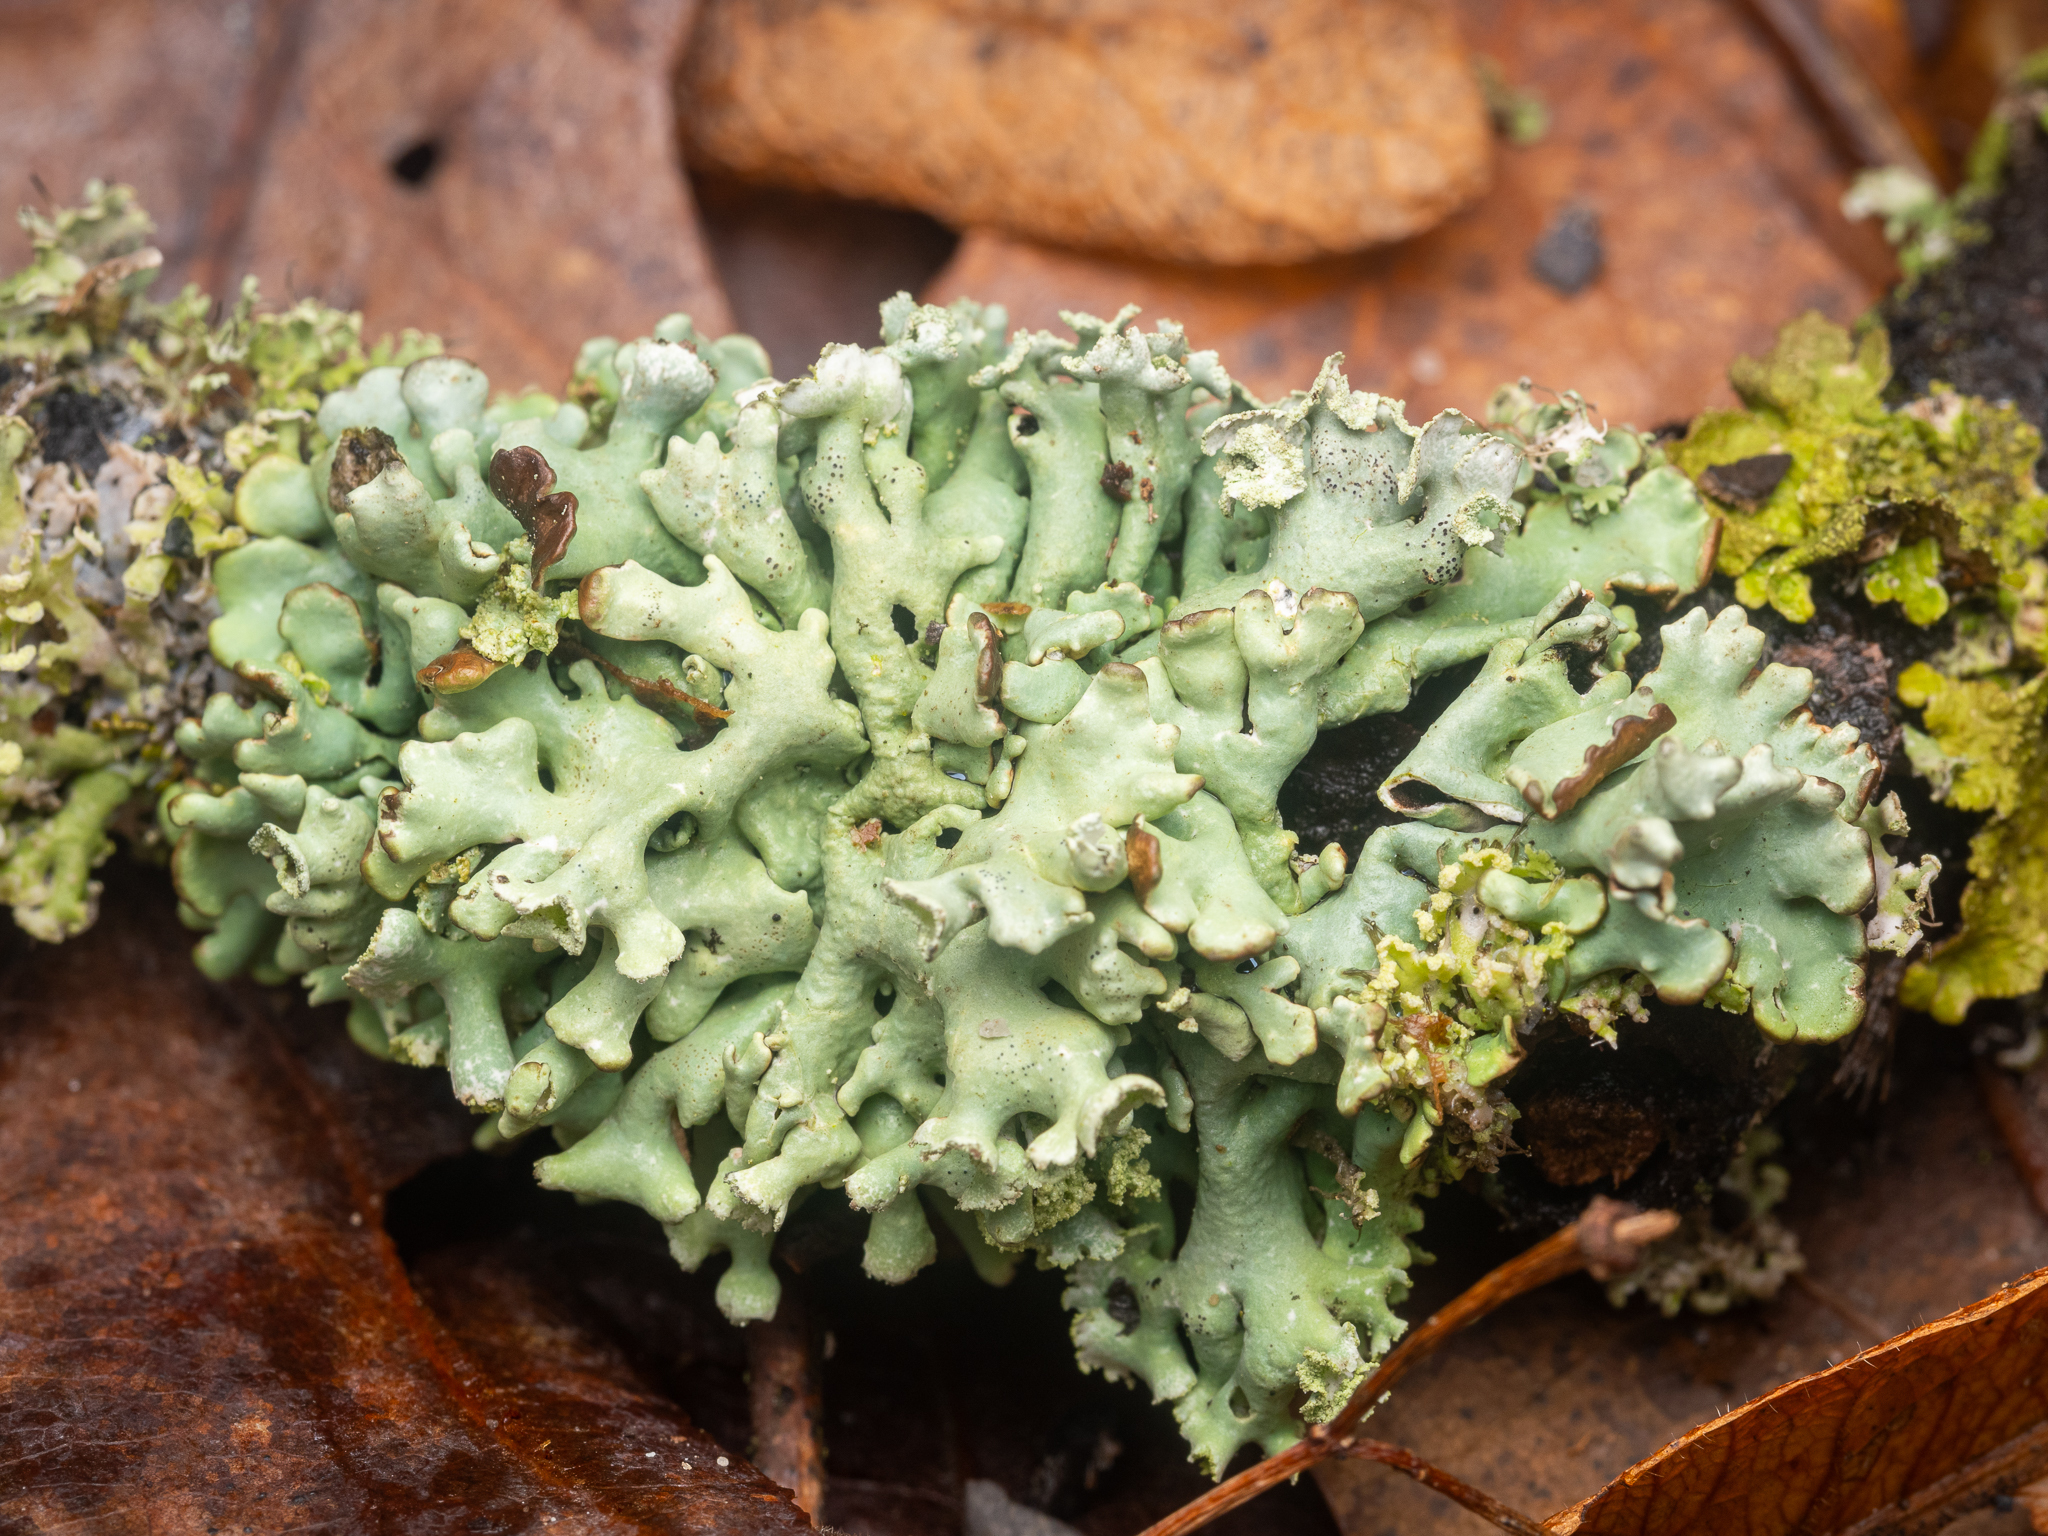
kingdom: Fungi
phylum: Ascomycota
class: Lecanoromycetes
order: Lecanorales
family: Parmeliaceae
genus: Hypogymnia
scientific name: Hypogymnia physodes
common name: Dark crottle
